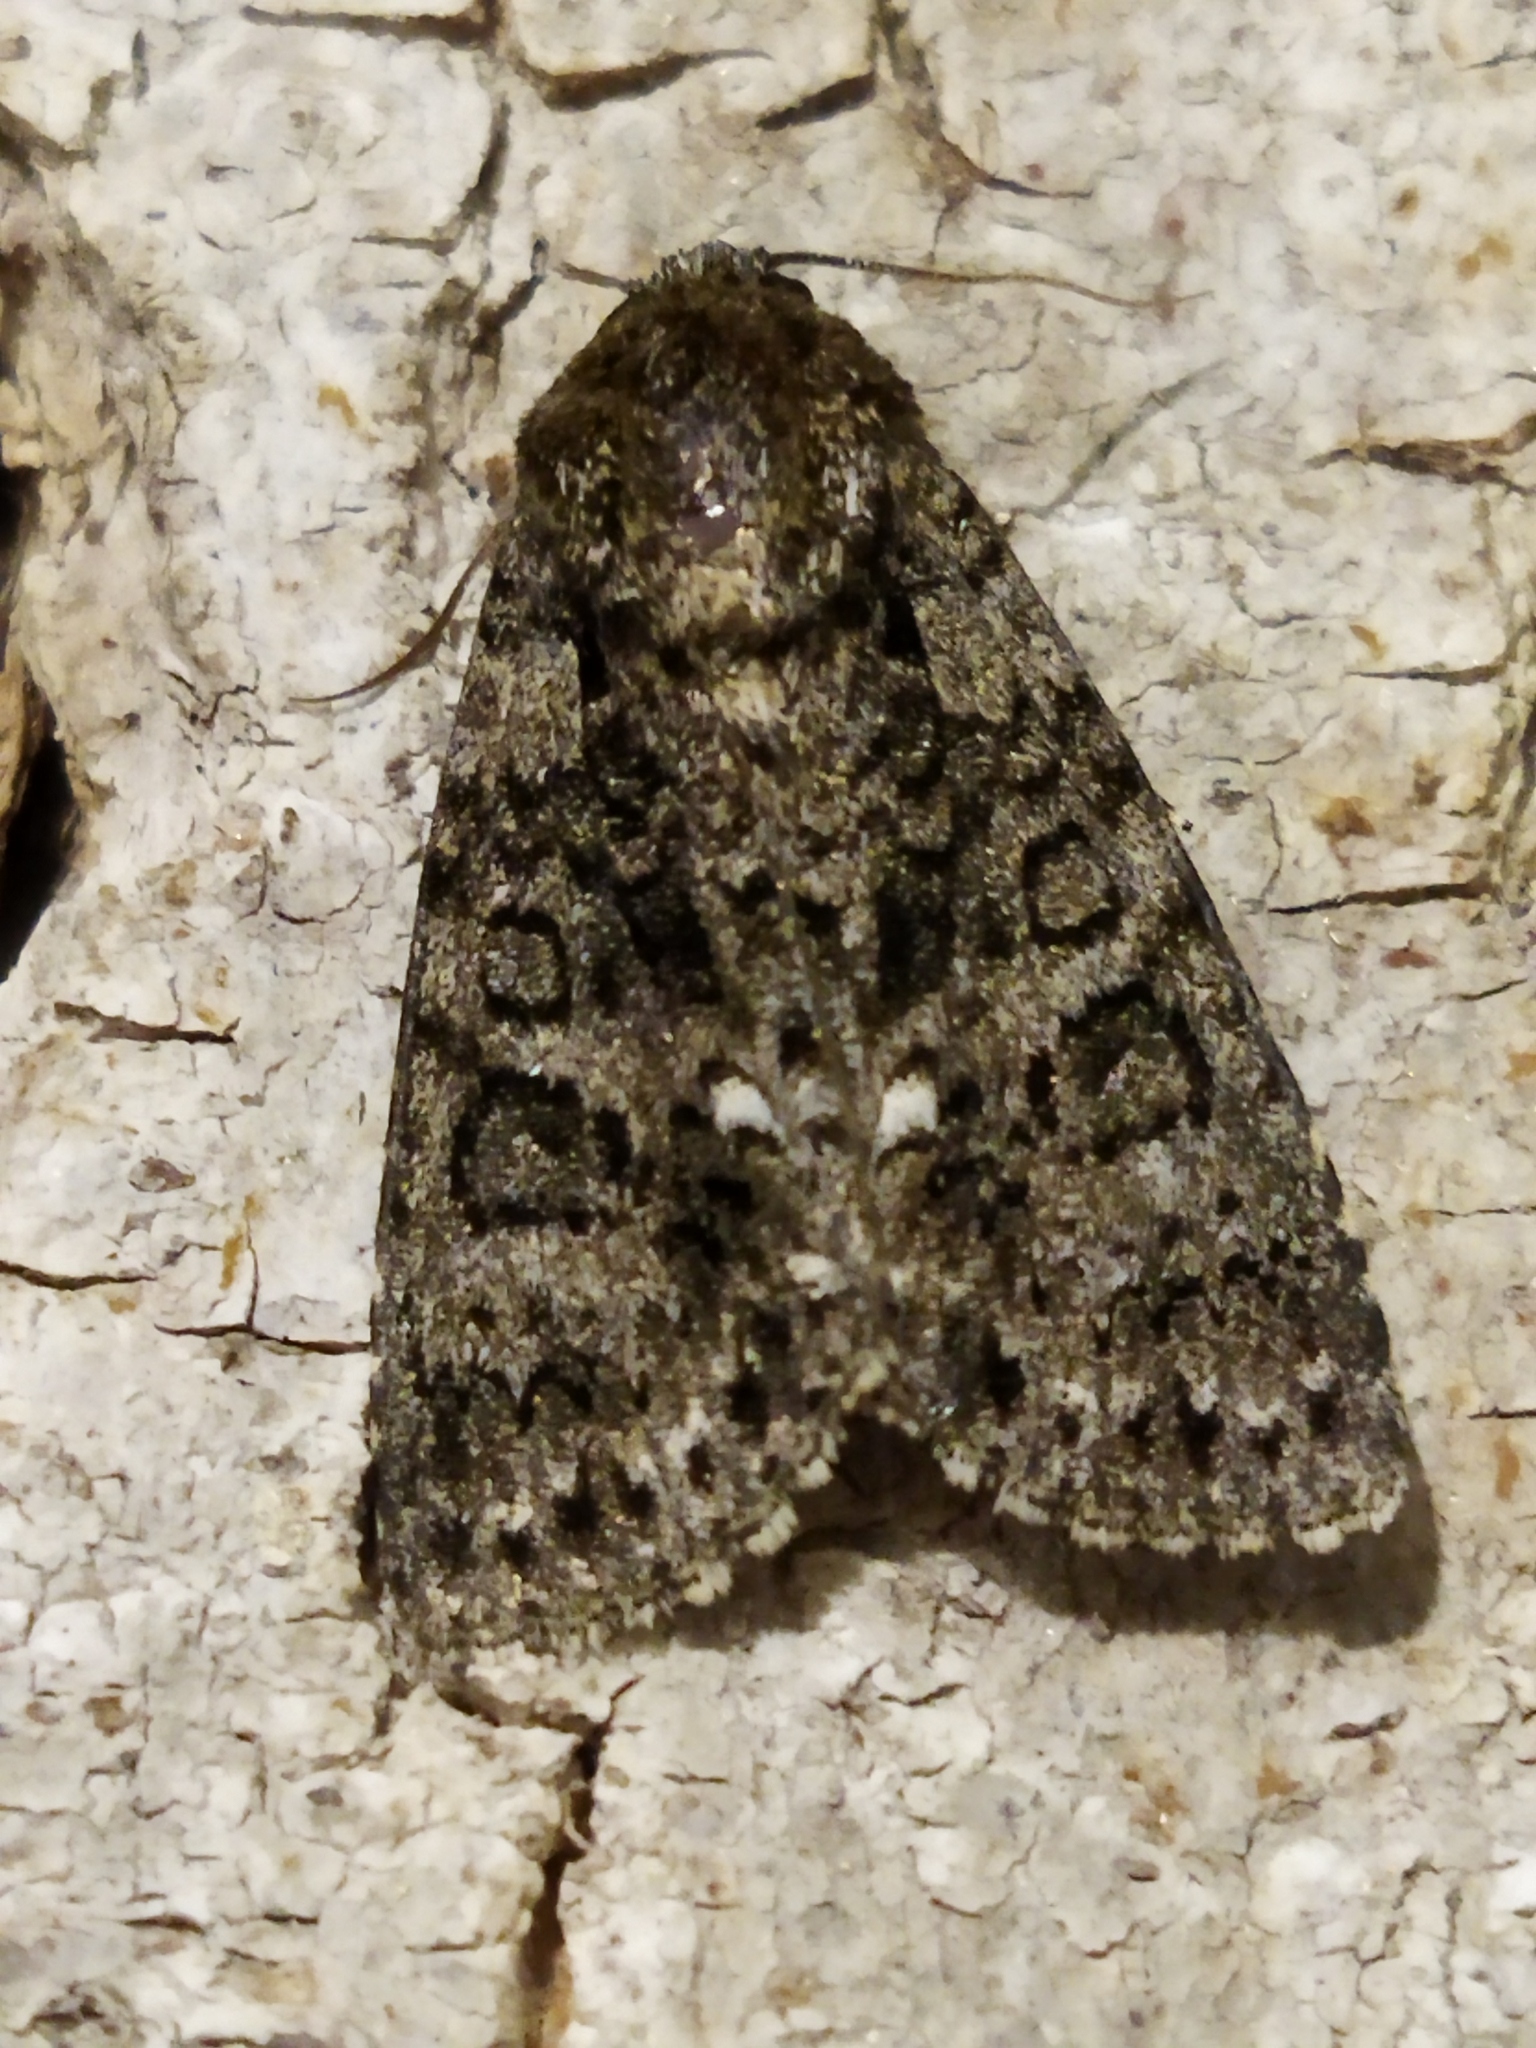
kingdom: Animalia
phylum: Arthropoda
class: Insecta
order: Lepidoptera
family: Noctuidae
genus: Acronicta
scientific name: Acronicta rumicis
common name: Knot grass
